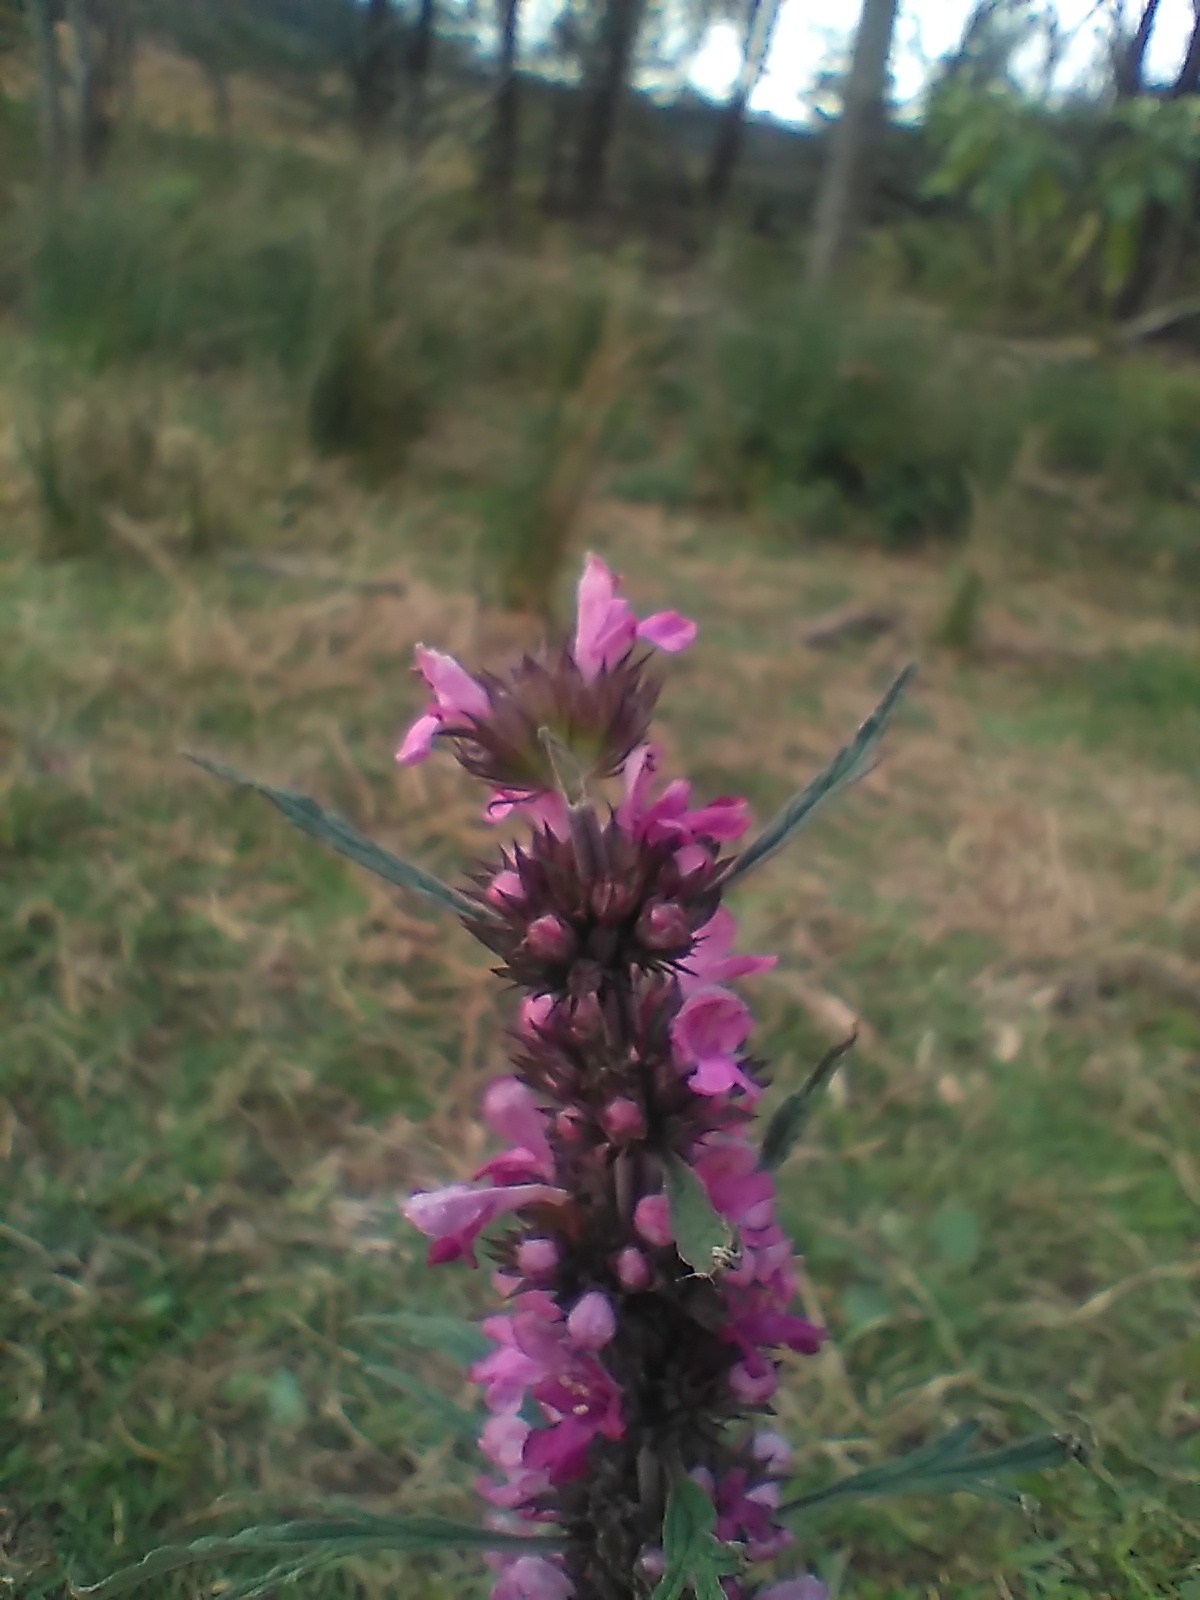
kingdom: Plantae
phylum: Tracheophyta
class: Magnoliopsida
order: Lamiales
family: Lamiaceae
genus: Leonurus
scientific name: Leonurus japonicus
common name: Honeyweed
